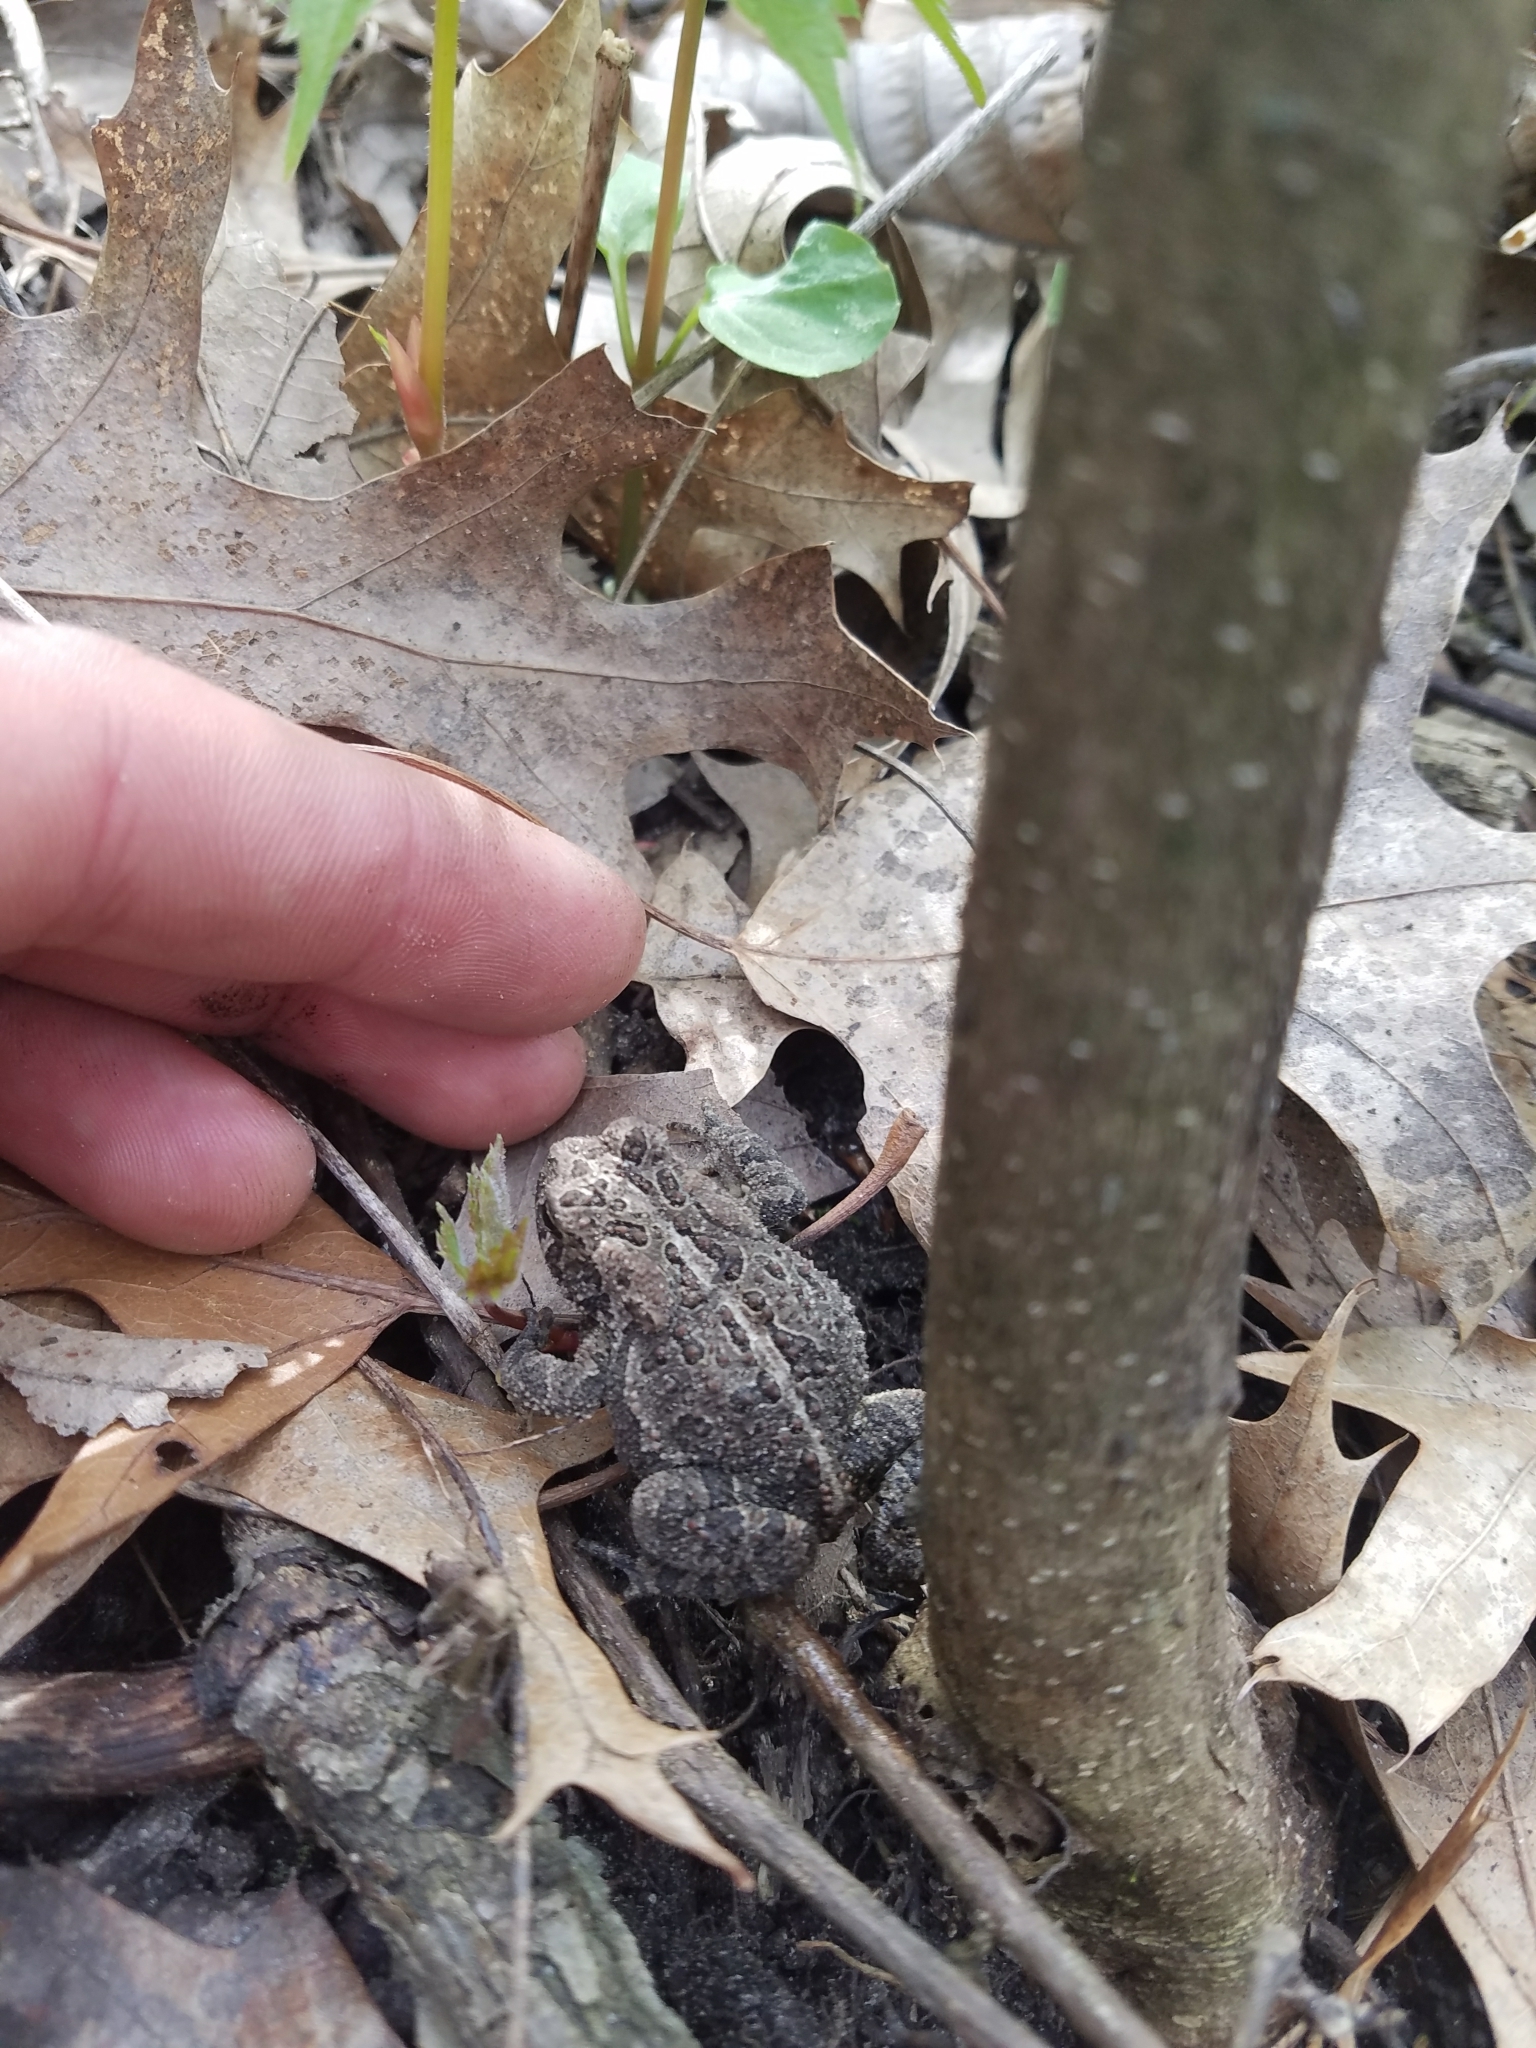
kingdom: Animalia
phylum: Chordata
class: Amphibia
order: Anura
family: Bufonidae
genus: Anaxyrus
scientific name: Anaxyrus americanus
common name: American toad
